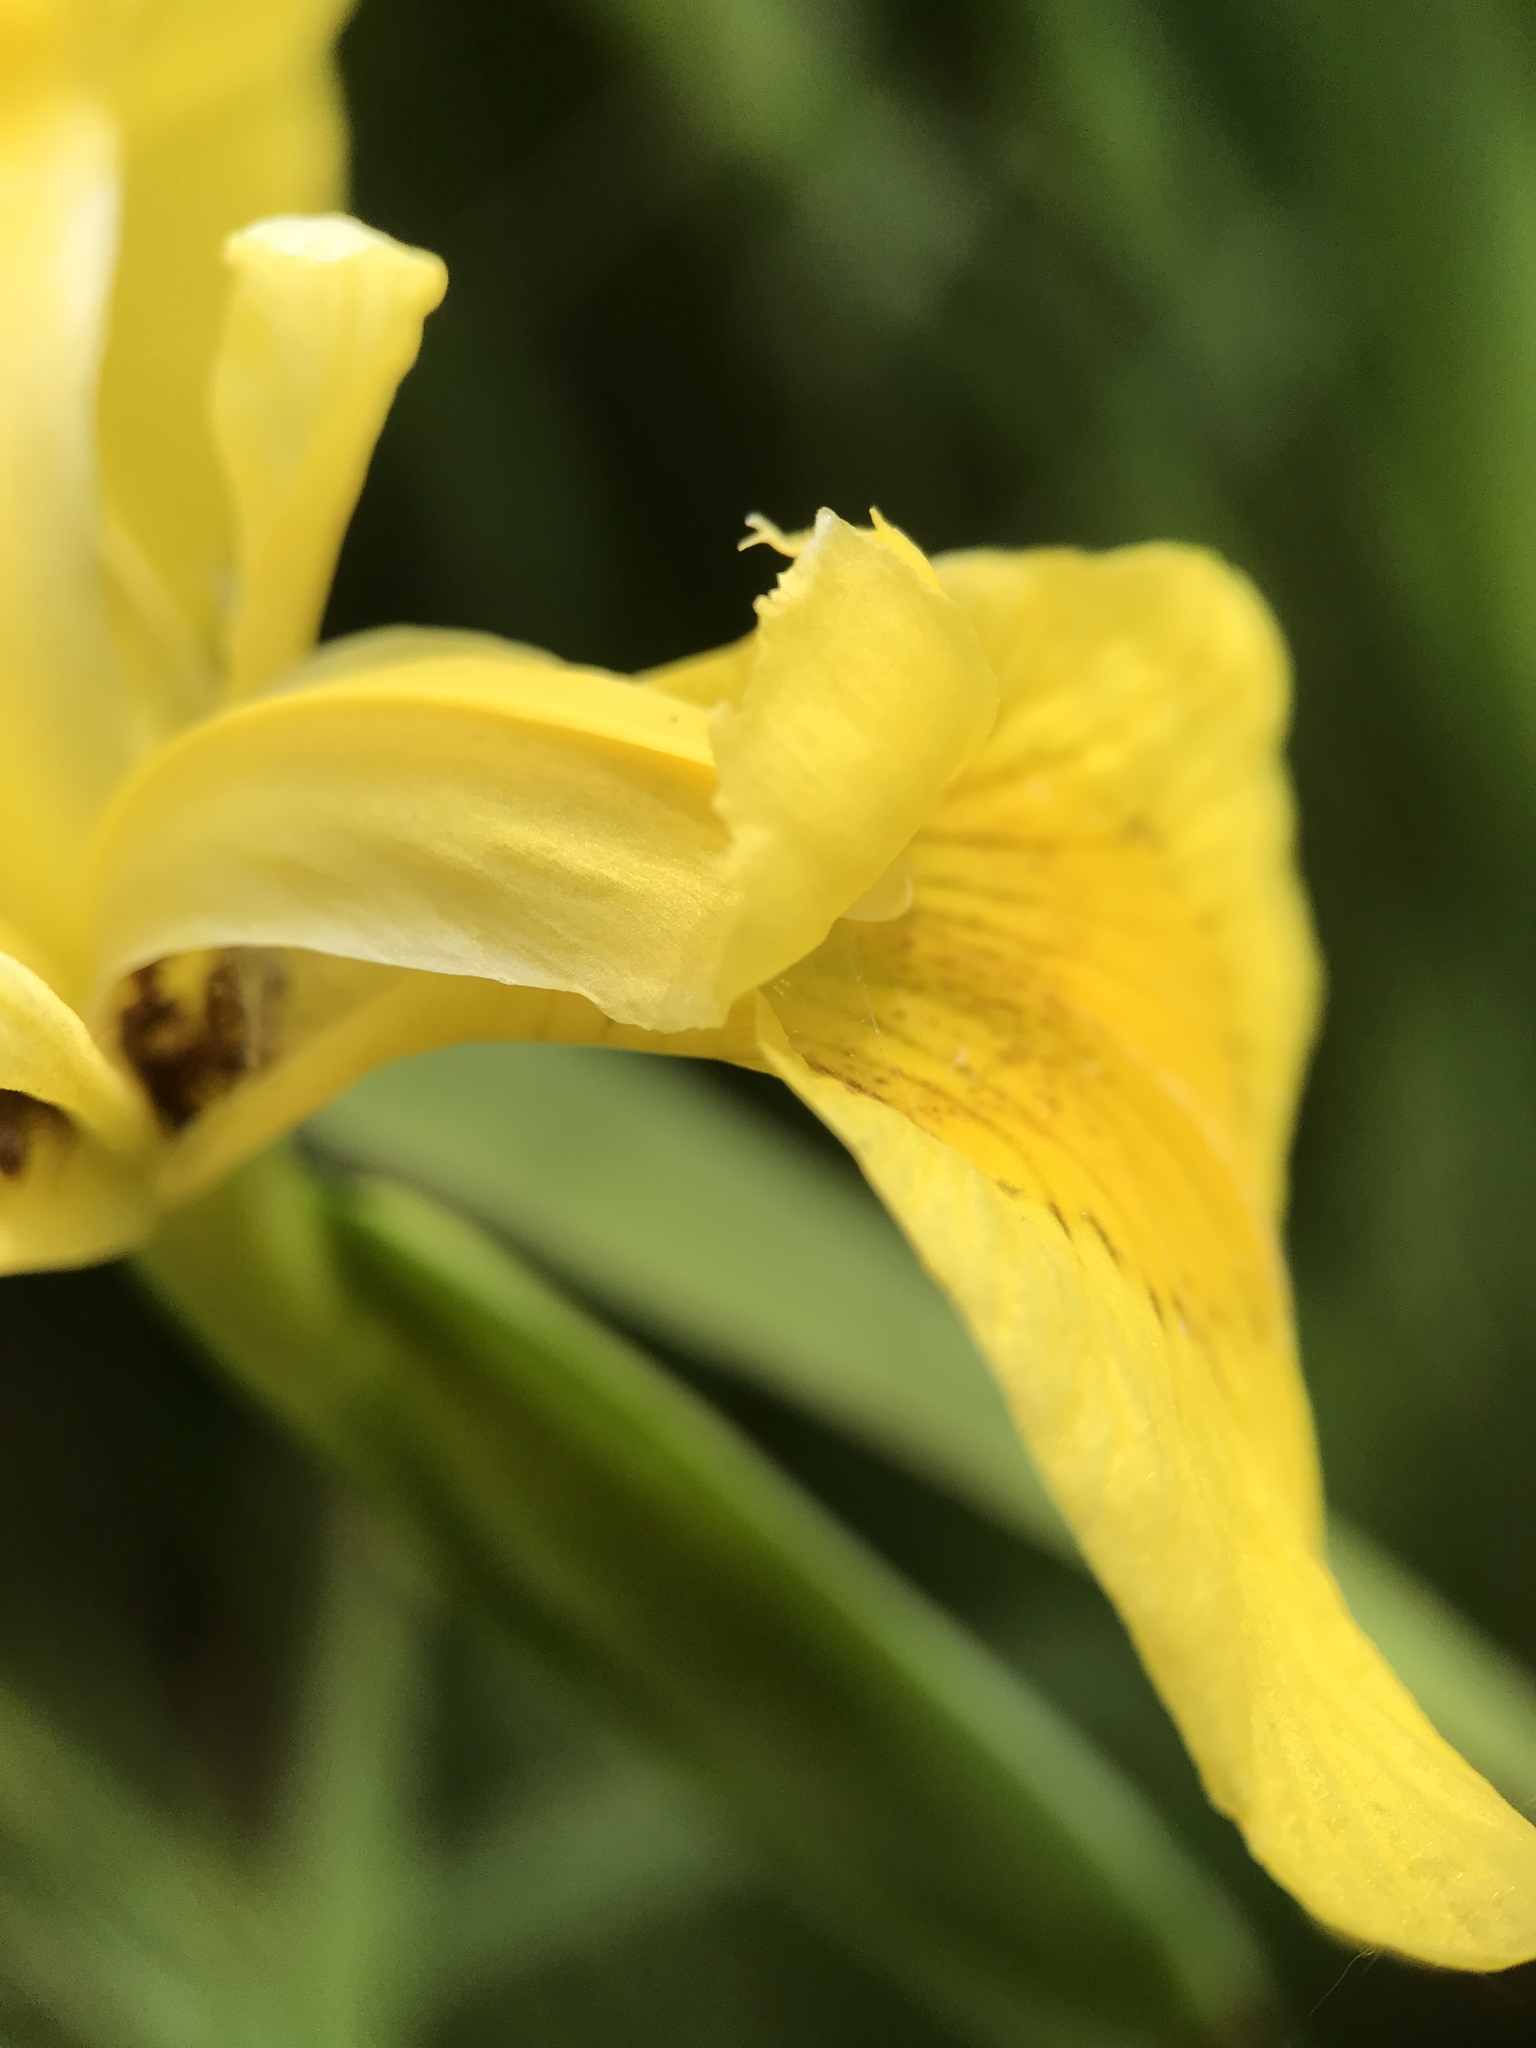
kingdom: Plantae
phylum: Tracheophyta
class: Liliopsida
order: Asparagales
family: Iridaceae
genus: Iris
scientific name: Iris pseudacorus
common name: Yellow flag
